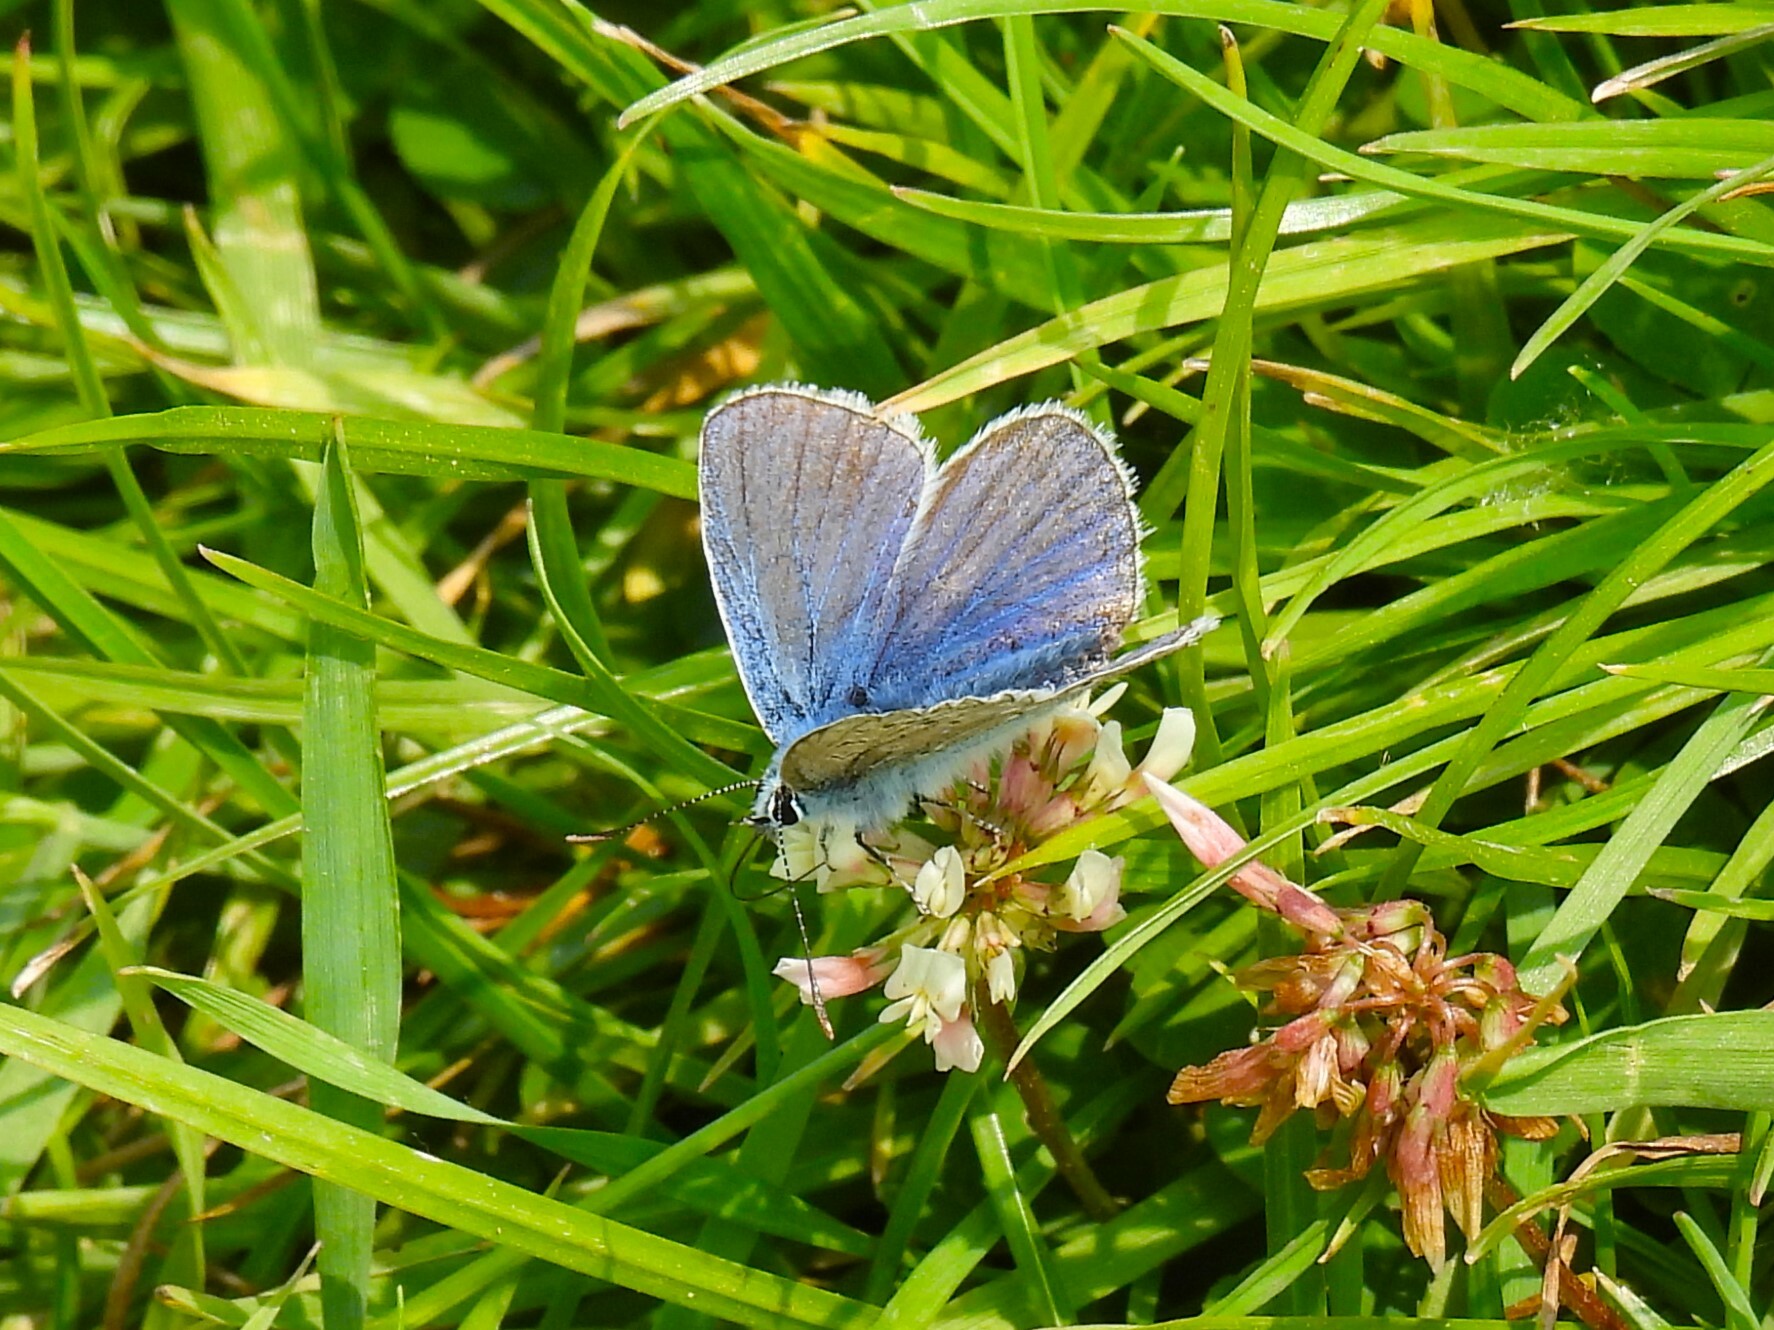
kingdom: Animalia
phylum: Arthropoda
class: Insecta
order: Lepidoptera
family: Lycaenidae
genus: Polyommatus
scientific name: Polyommatus icarus
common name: Common blue
